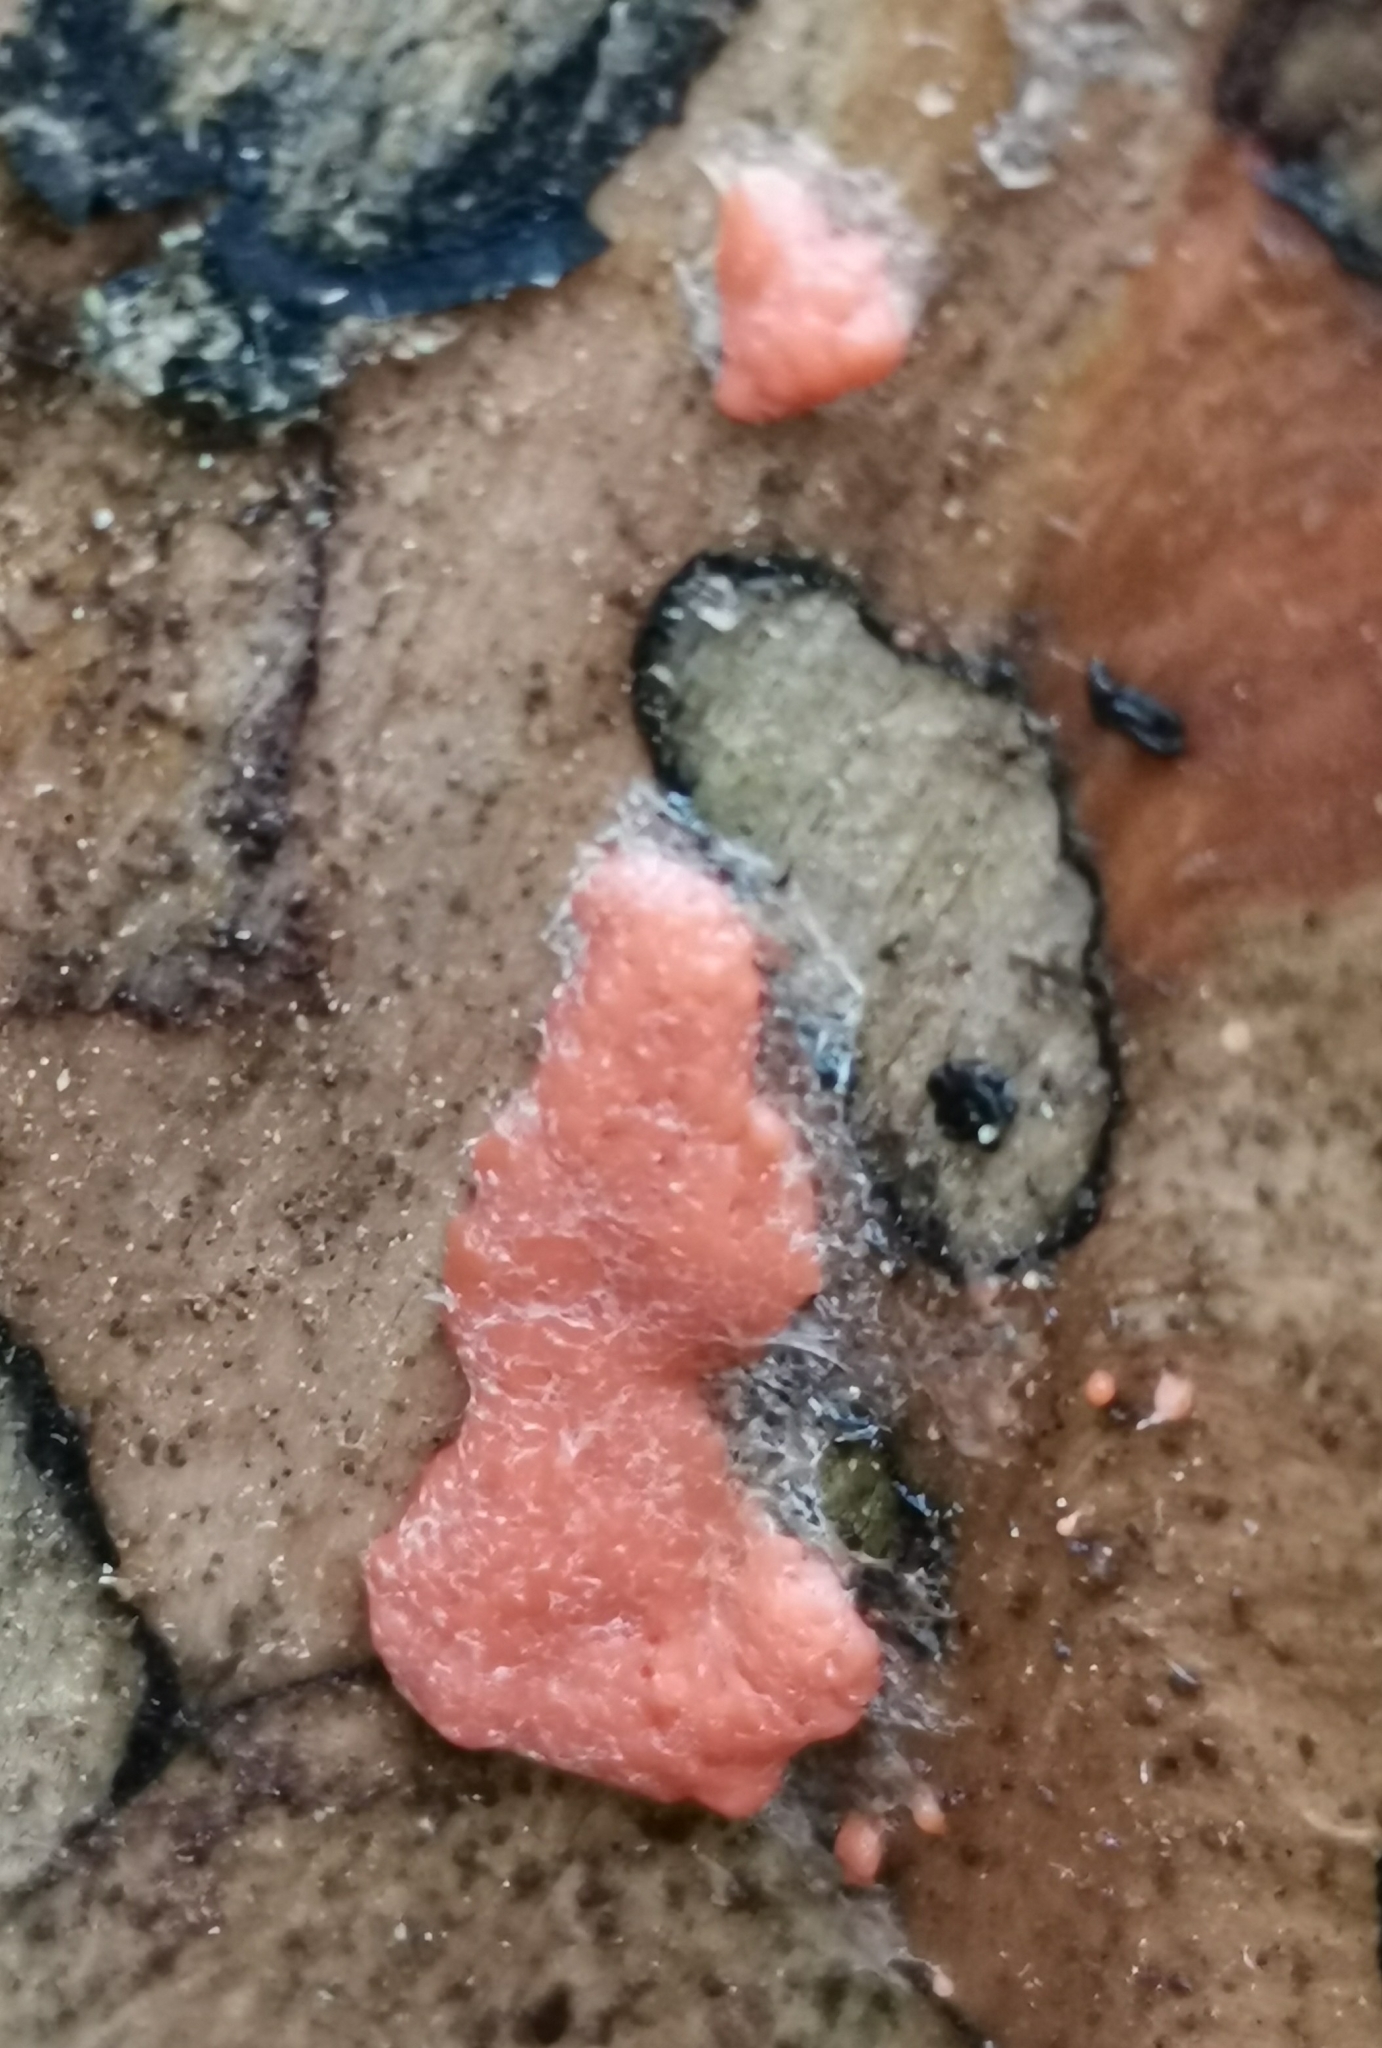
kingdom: Protozoa
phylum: Mycetozoa
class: Myxomycetes
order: Cribrariales
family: Tubiferaceae
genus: Tubifera
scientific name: Tubifera ferruginosa
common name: Red raspberry slime mold
